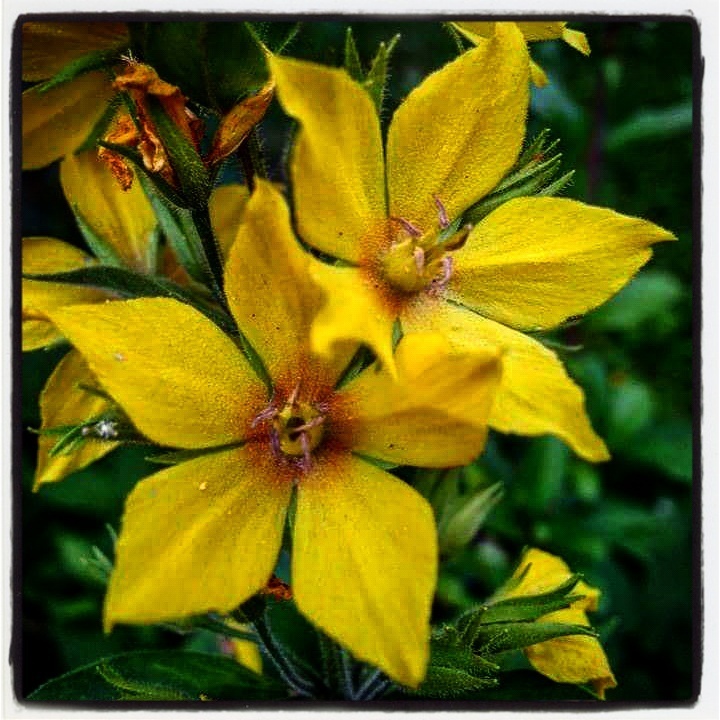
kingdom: Plantae
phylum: Tracheophyta
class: Magnoliopsida
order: Ericales
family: Primulaceae
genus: Lysimachia
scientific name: Lysimachia punctata
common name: Dotted loosestrife
